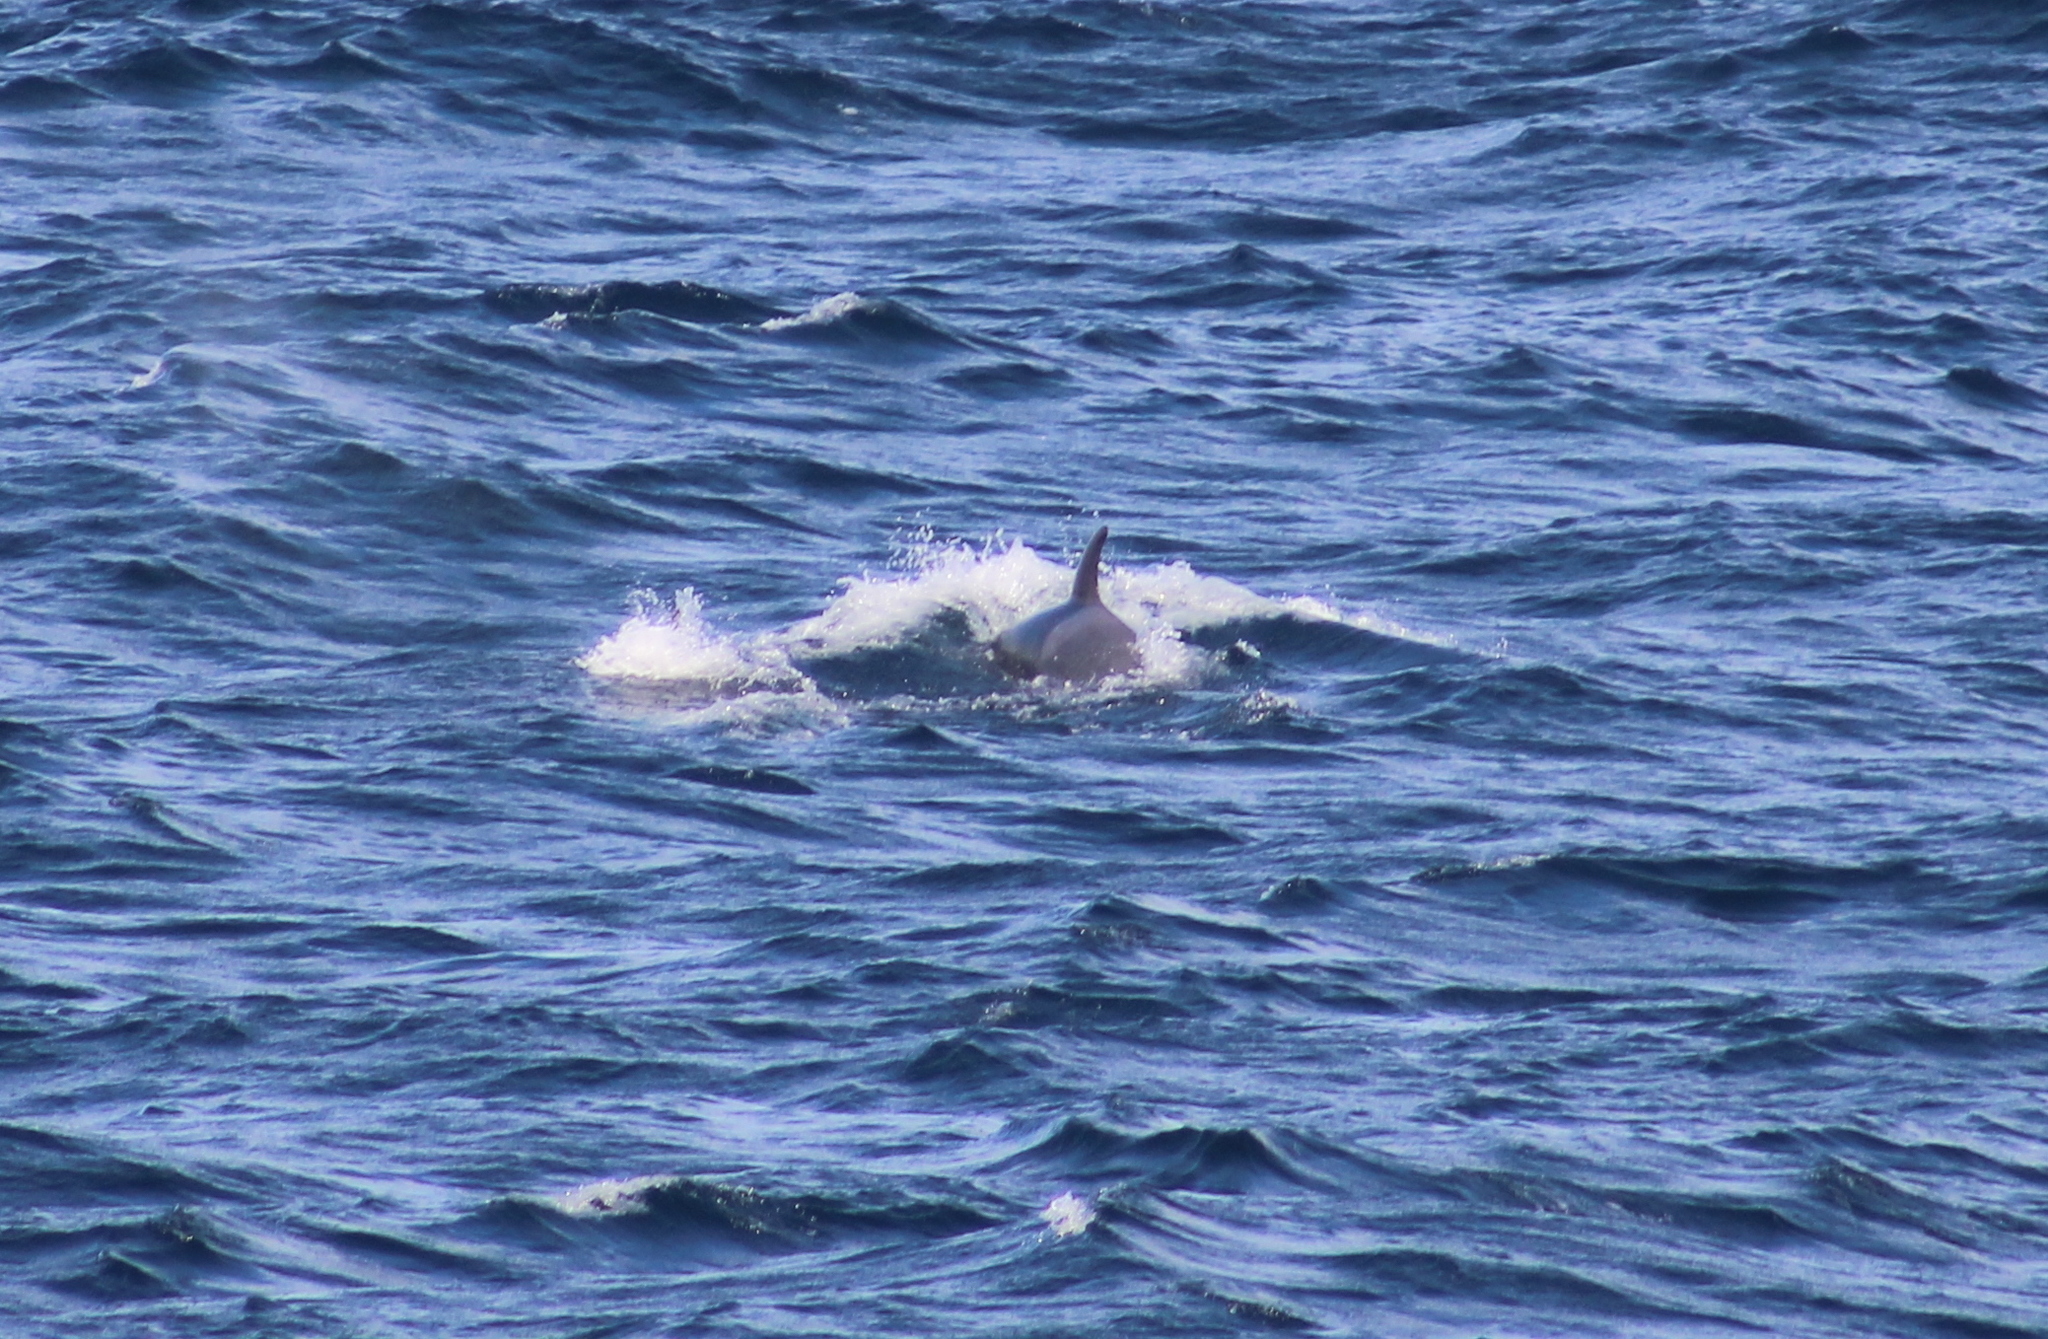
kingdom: Animalia
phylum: Chordata
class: Mammalia
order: Cetacea
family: Delphinidae
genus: Orcinus
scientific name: Orcinus orca
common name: Killer whale
